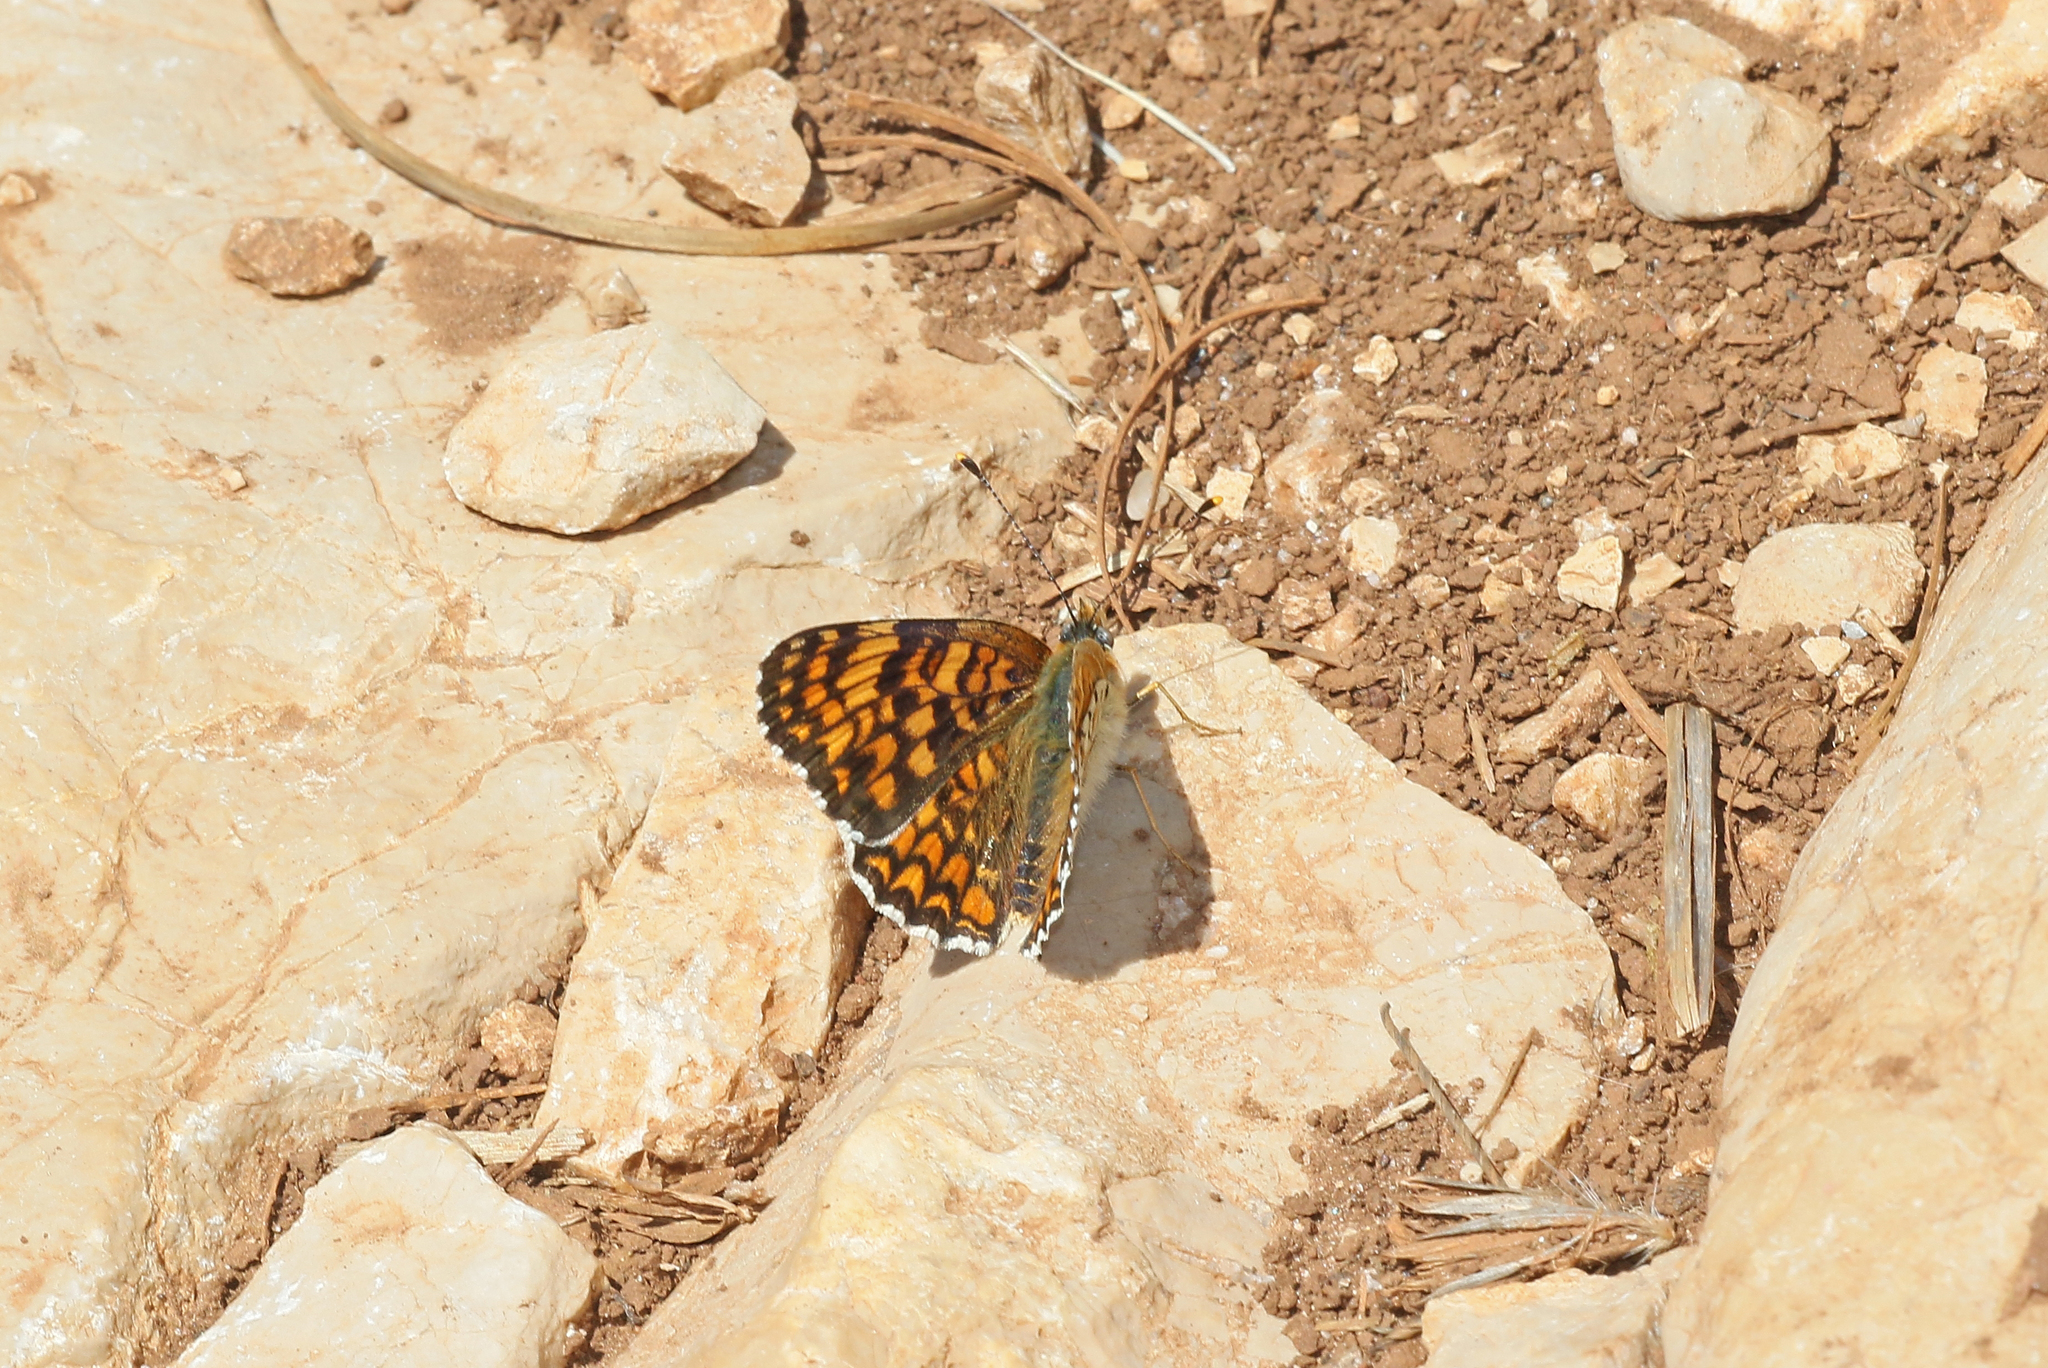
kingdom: Animalia
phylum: Arthropoda
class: Insecta
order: Lepidoptera
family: Nymphalidae
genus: Melitaea
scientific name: Melitaea phoebe
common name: Knapweed fritillary
